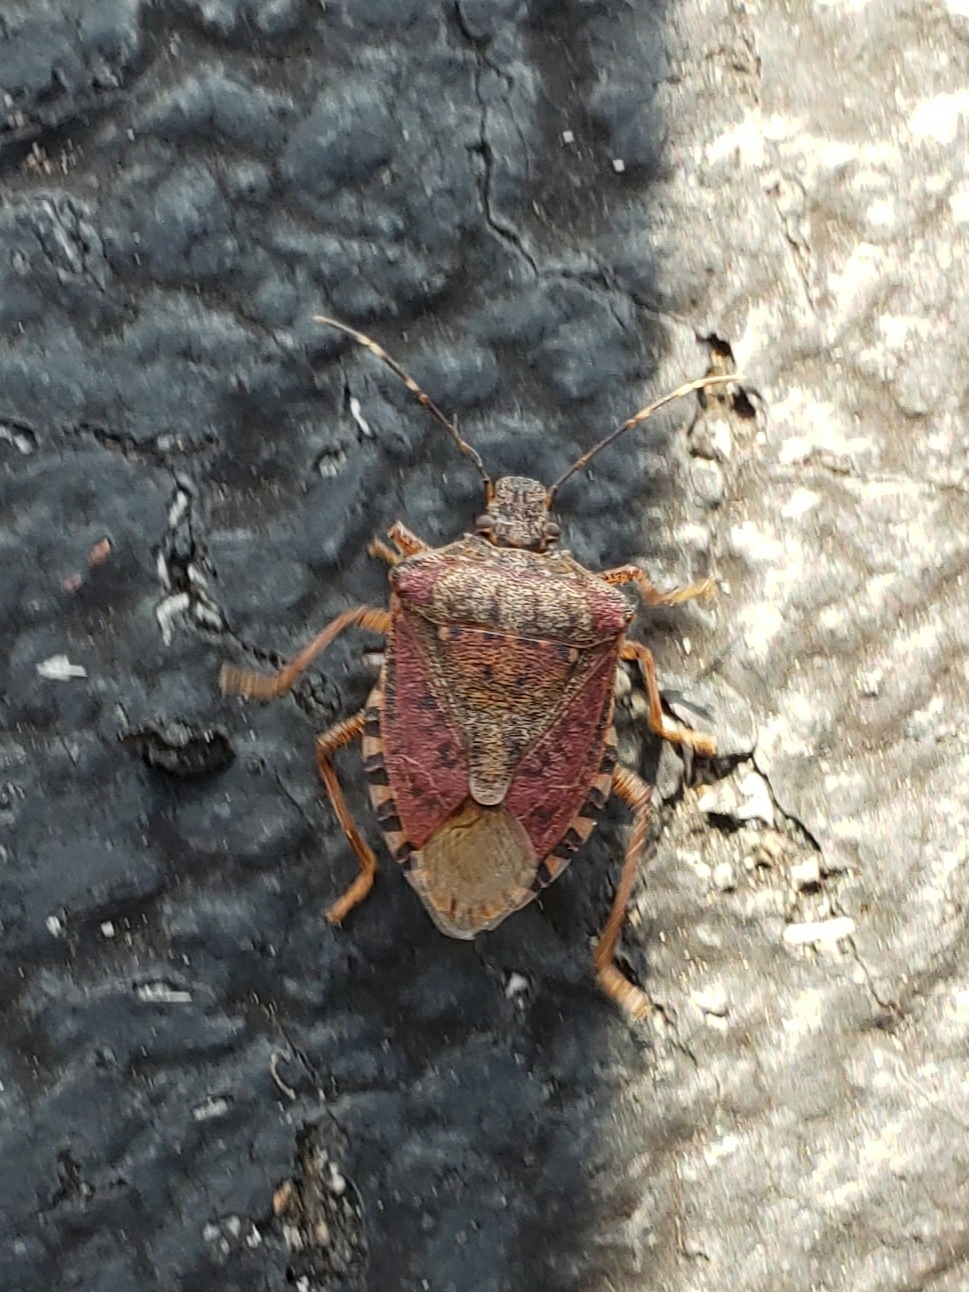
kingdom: Animalia
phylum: Arthropoda
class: Insecta
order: Hemiptera
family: Pentatomidae
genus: Halyomorpha
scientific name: Halyomorpha halys
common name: Brown marmorated stink bug
